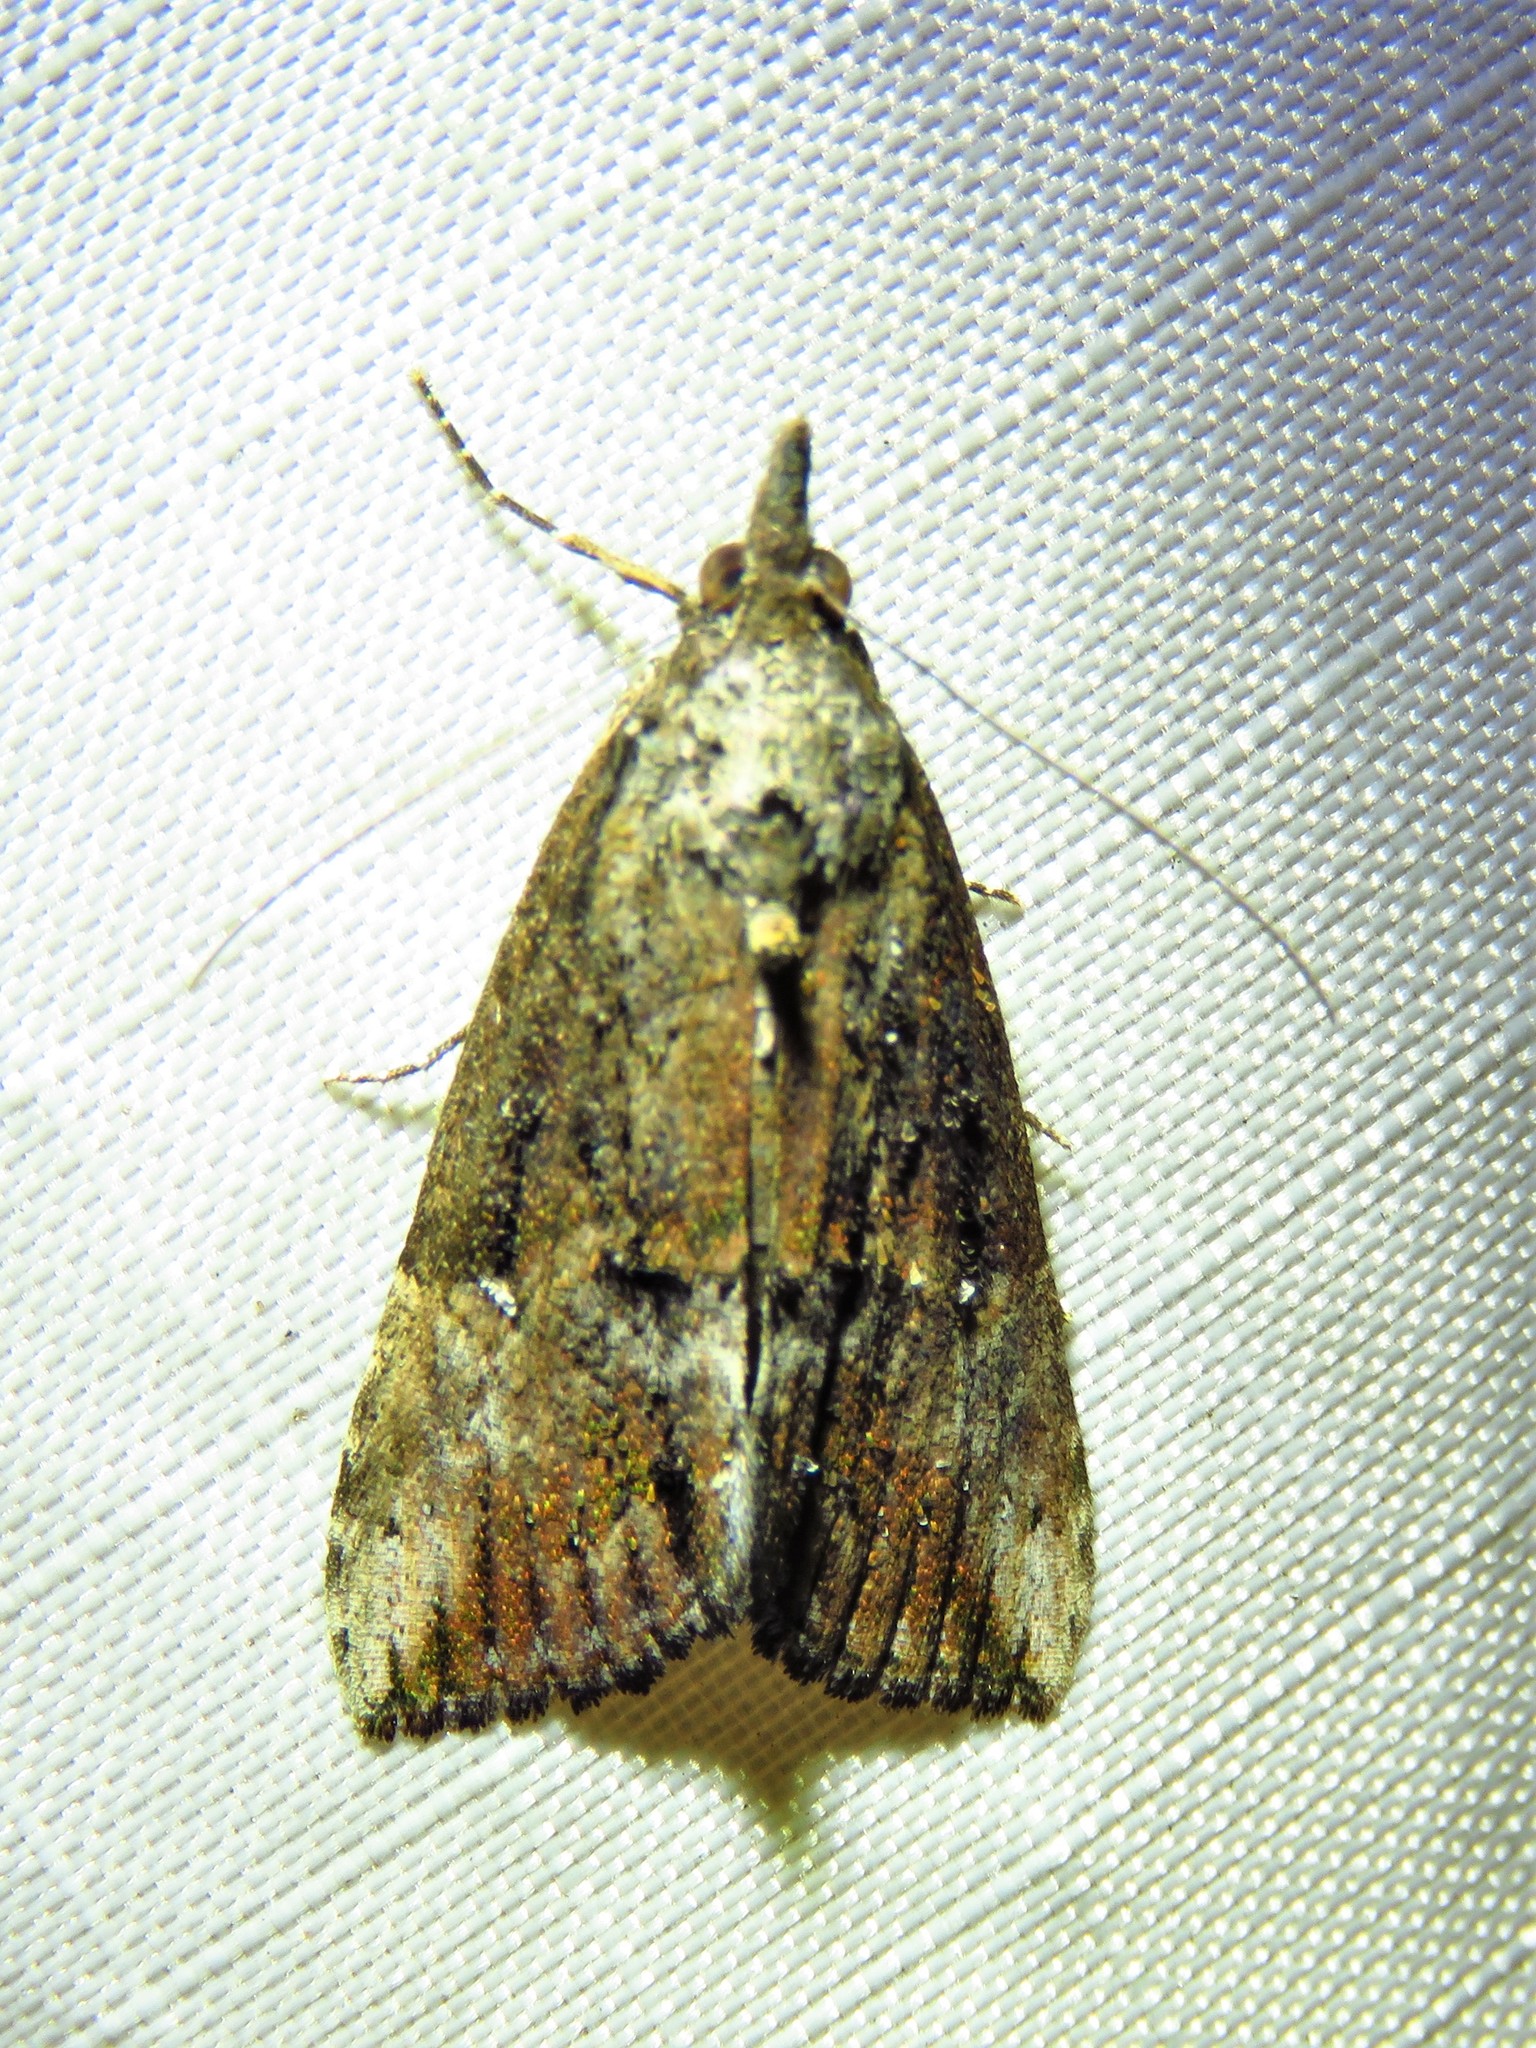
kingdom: Animalia
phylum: Arthropoda
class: Insecta
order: Lepidoptera
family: Erebidae
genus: Hypena
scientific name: Hypena scabra
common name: Green cloverworm
